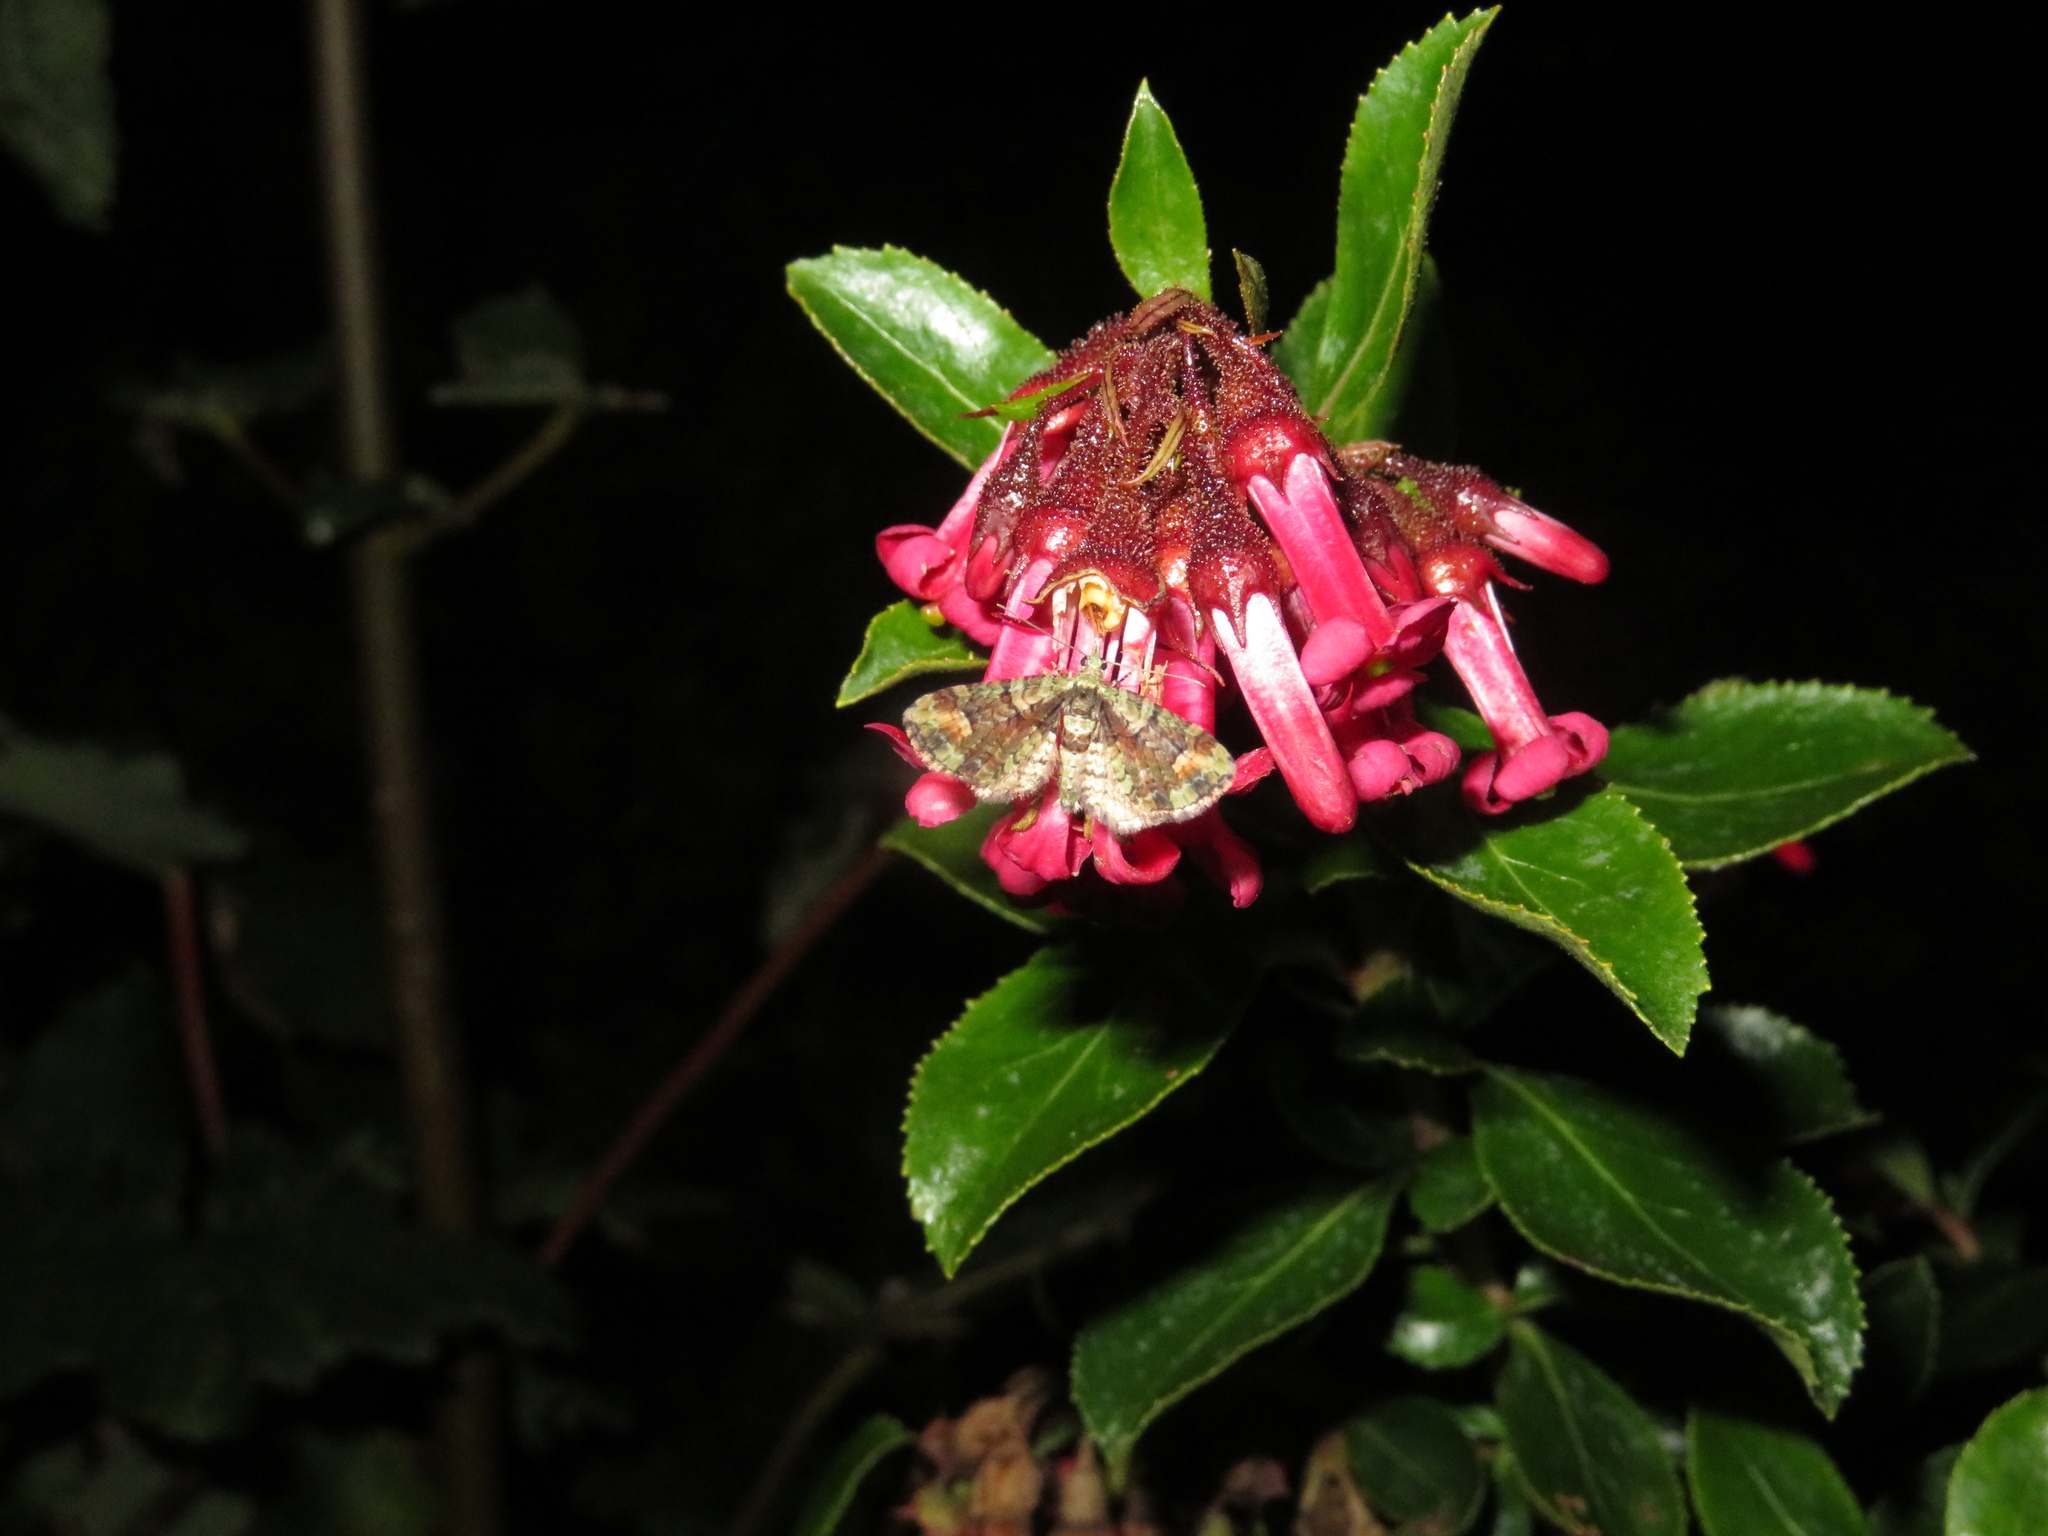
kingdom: Animalia
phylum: Arthropoda
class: Insecta
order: Lepidoptera
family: Geometridae
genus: Idaea
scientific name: Idaea mutanda
